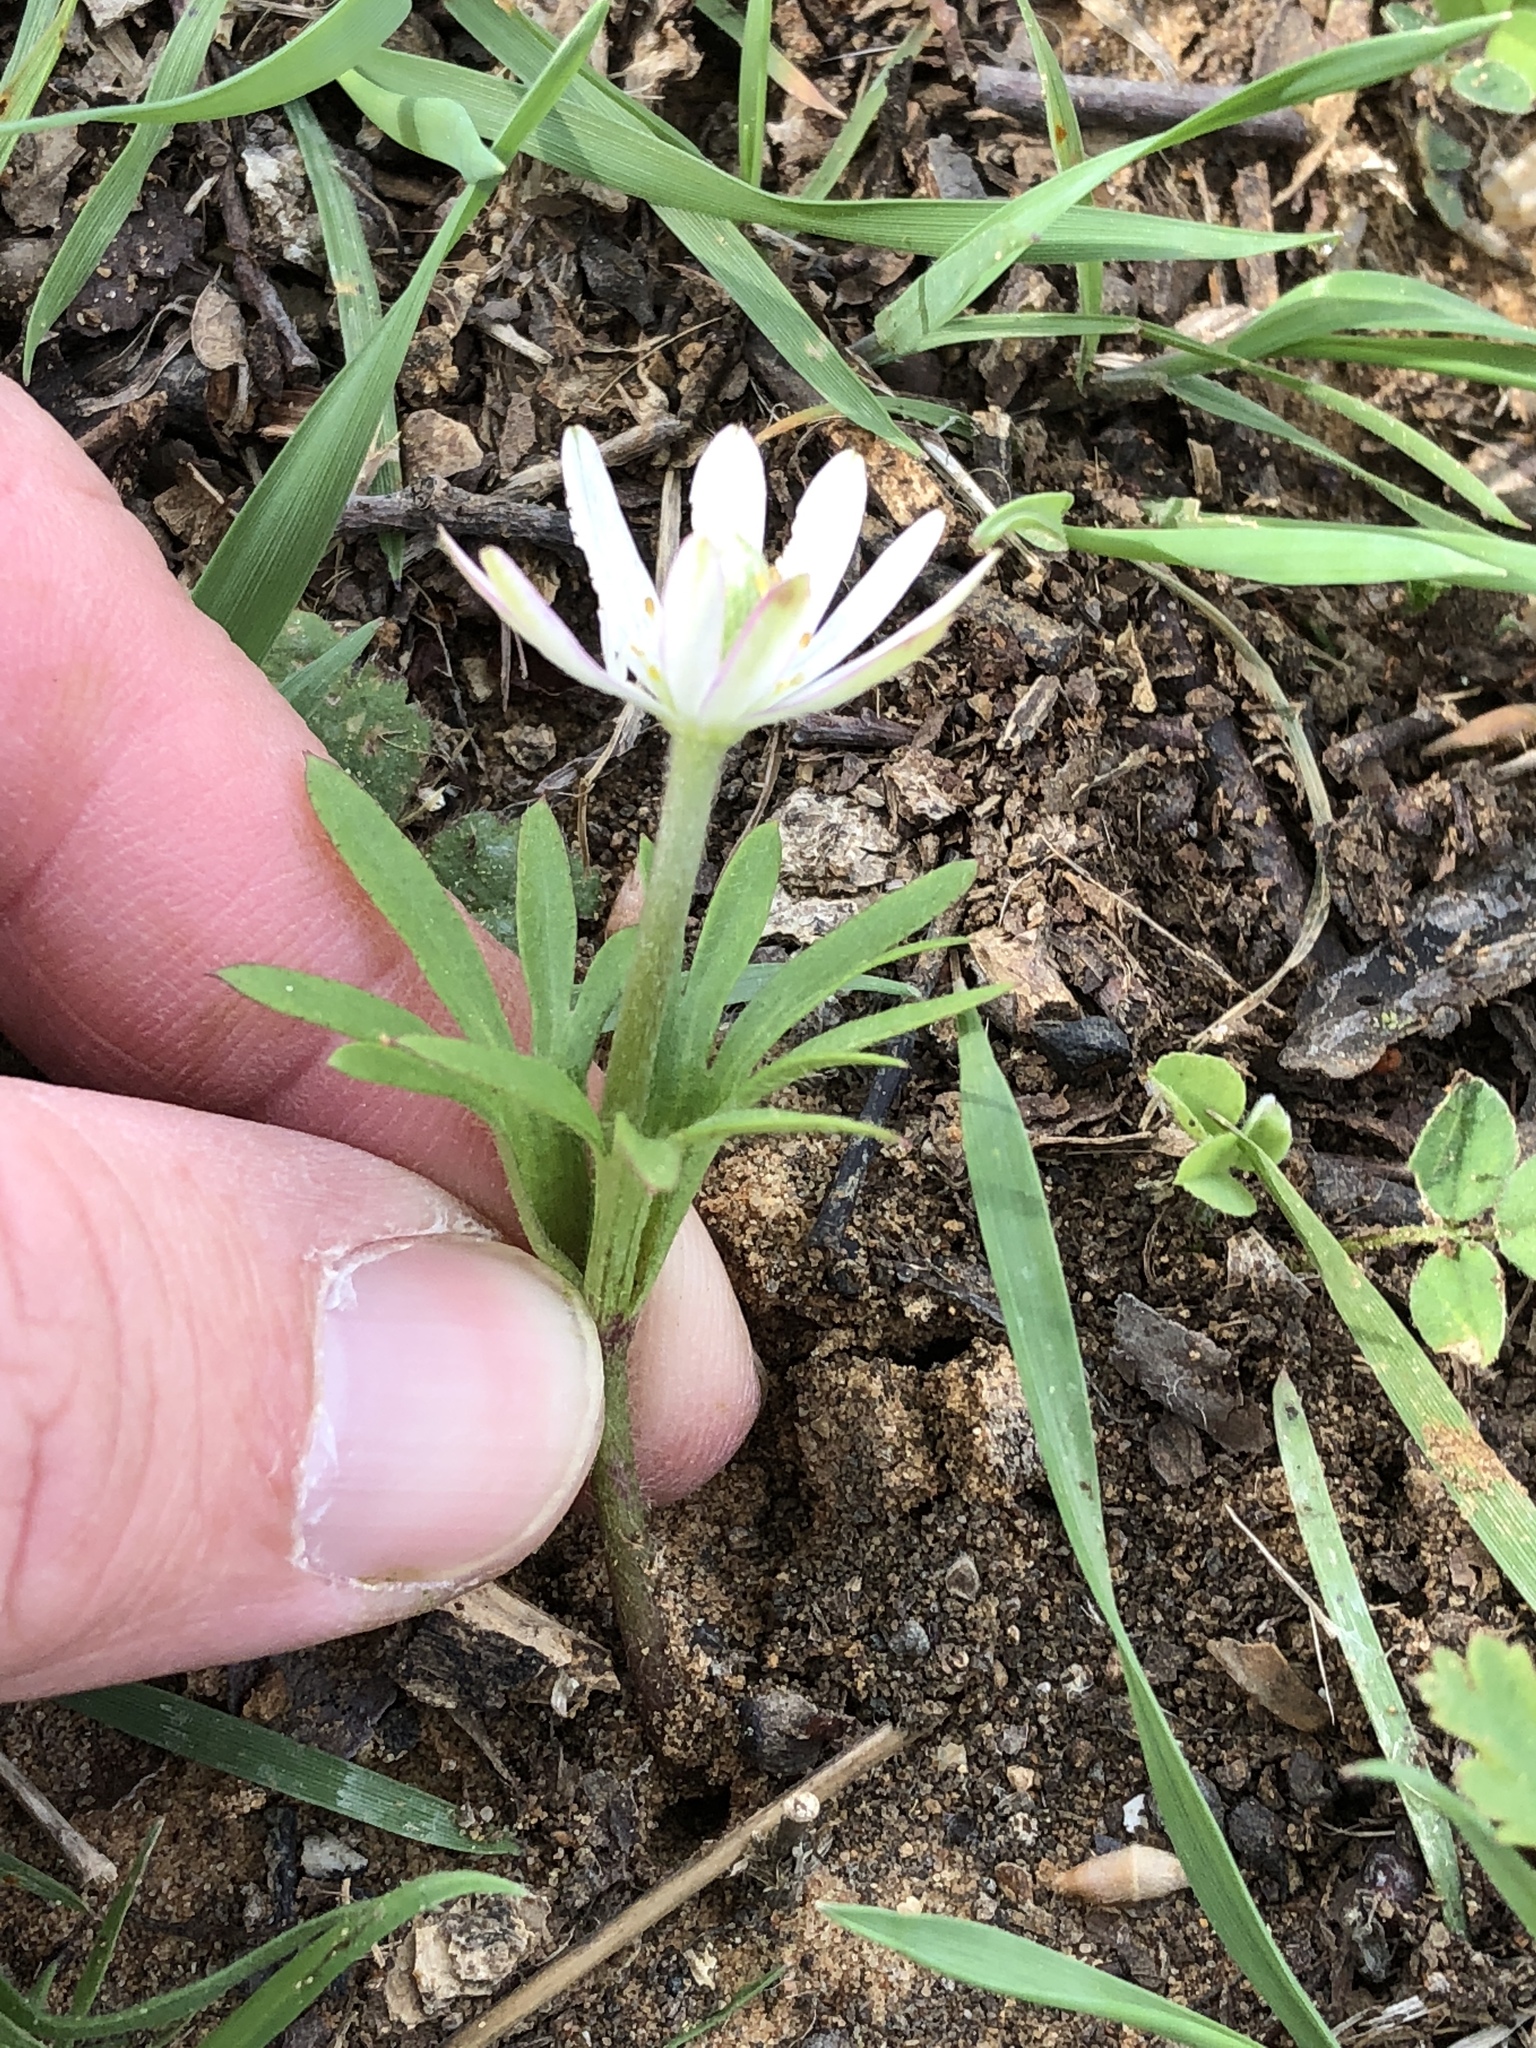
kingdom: Plantae
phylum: Tracheophyta
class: Magnoliopsida
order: Ranunculales
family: Ranunculaceae
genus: Anemone
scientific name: Anemone berlandieri
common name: Ten-petal anemone
